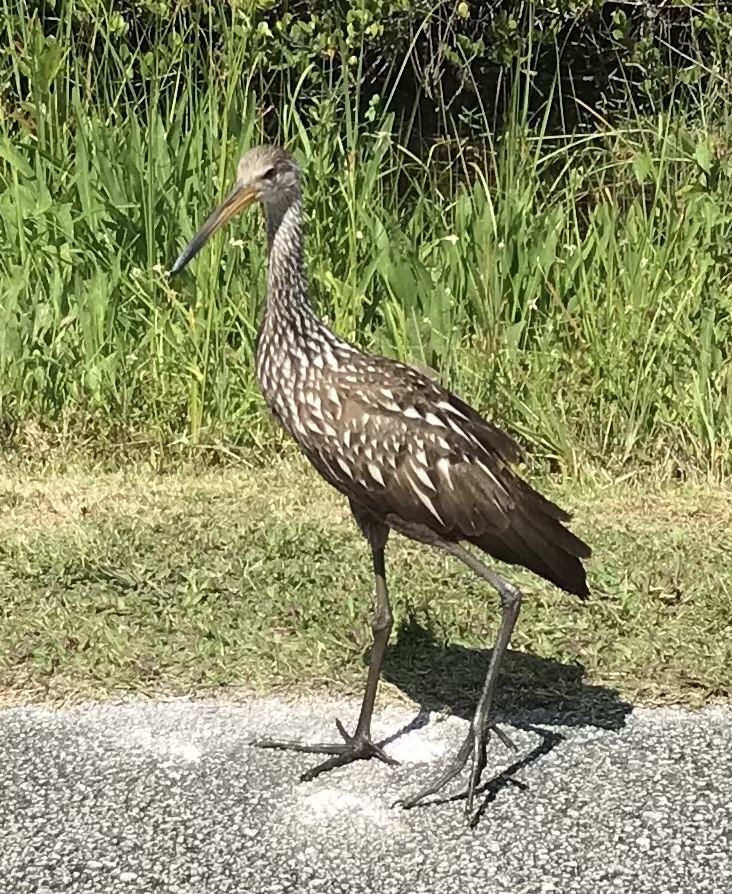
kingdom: Animalia
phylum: Chordata
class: Aves
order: Gruiformes
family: Aramidae
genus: Aramus
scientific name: Aramus guarauna
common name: Limpkin
